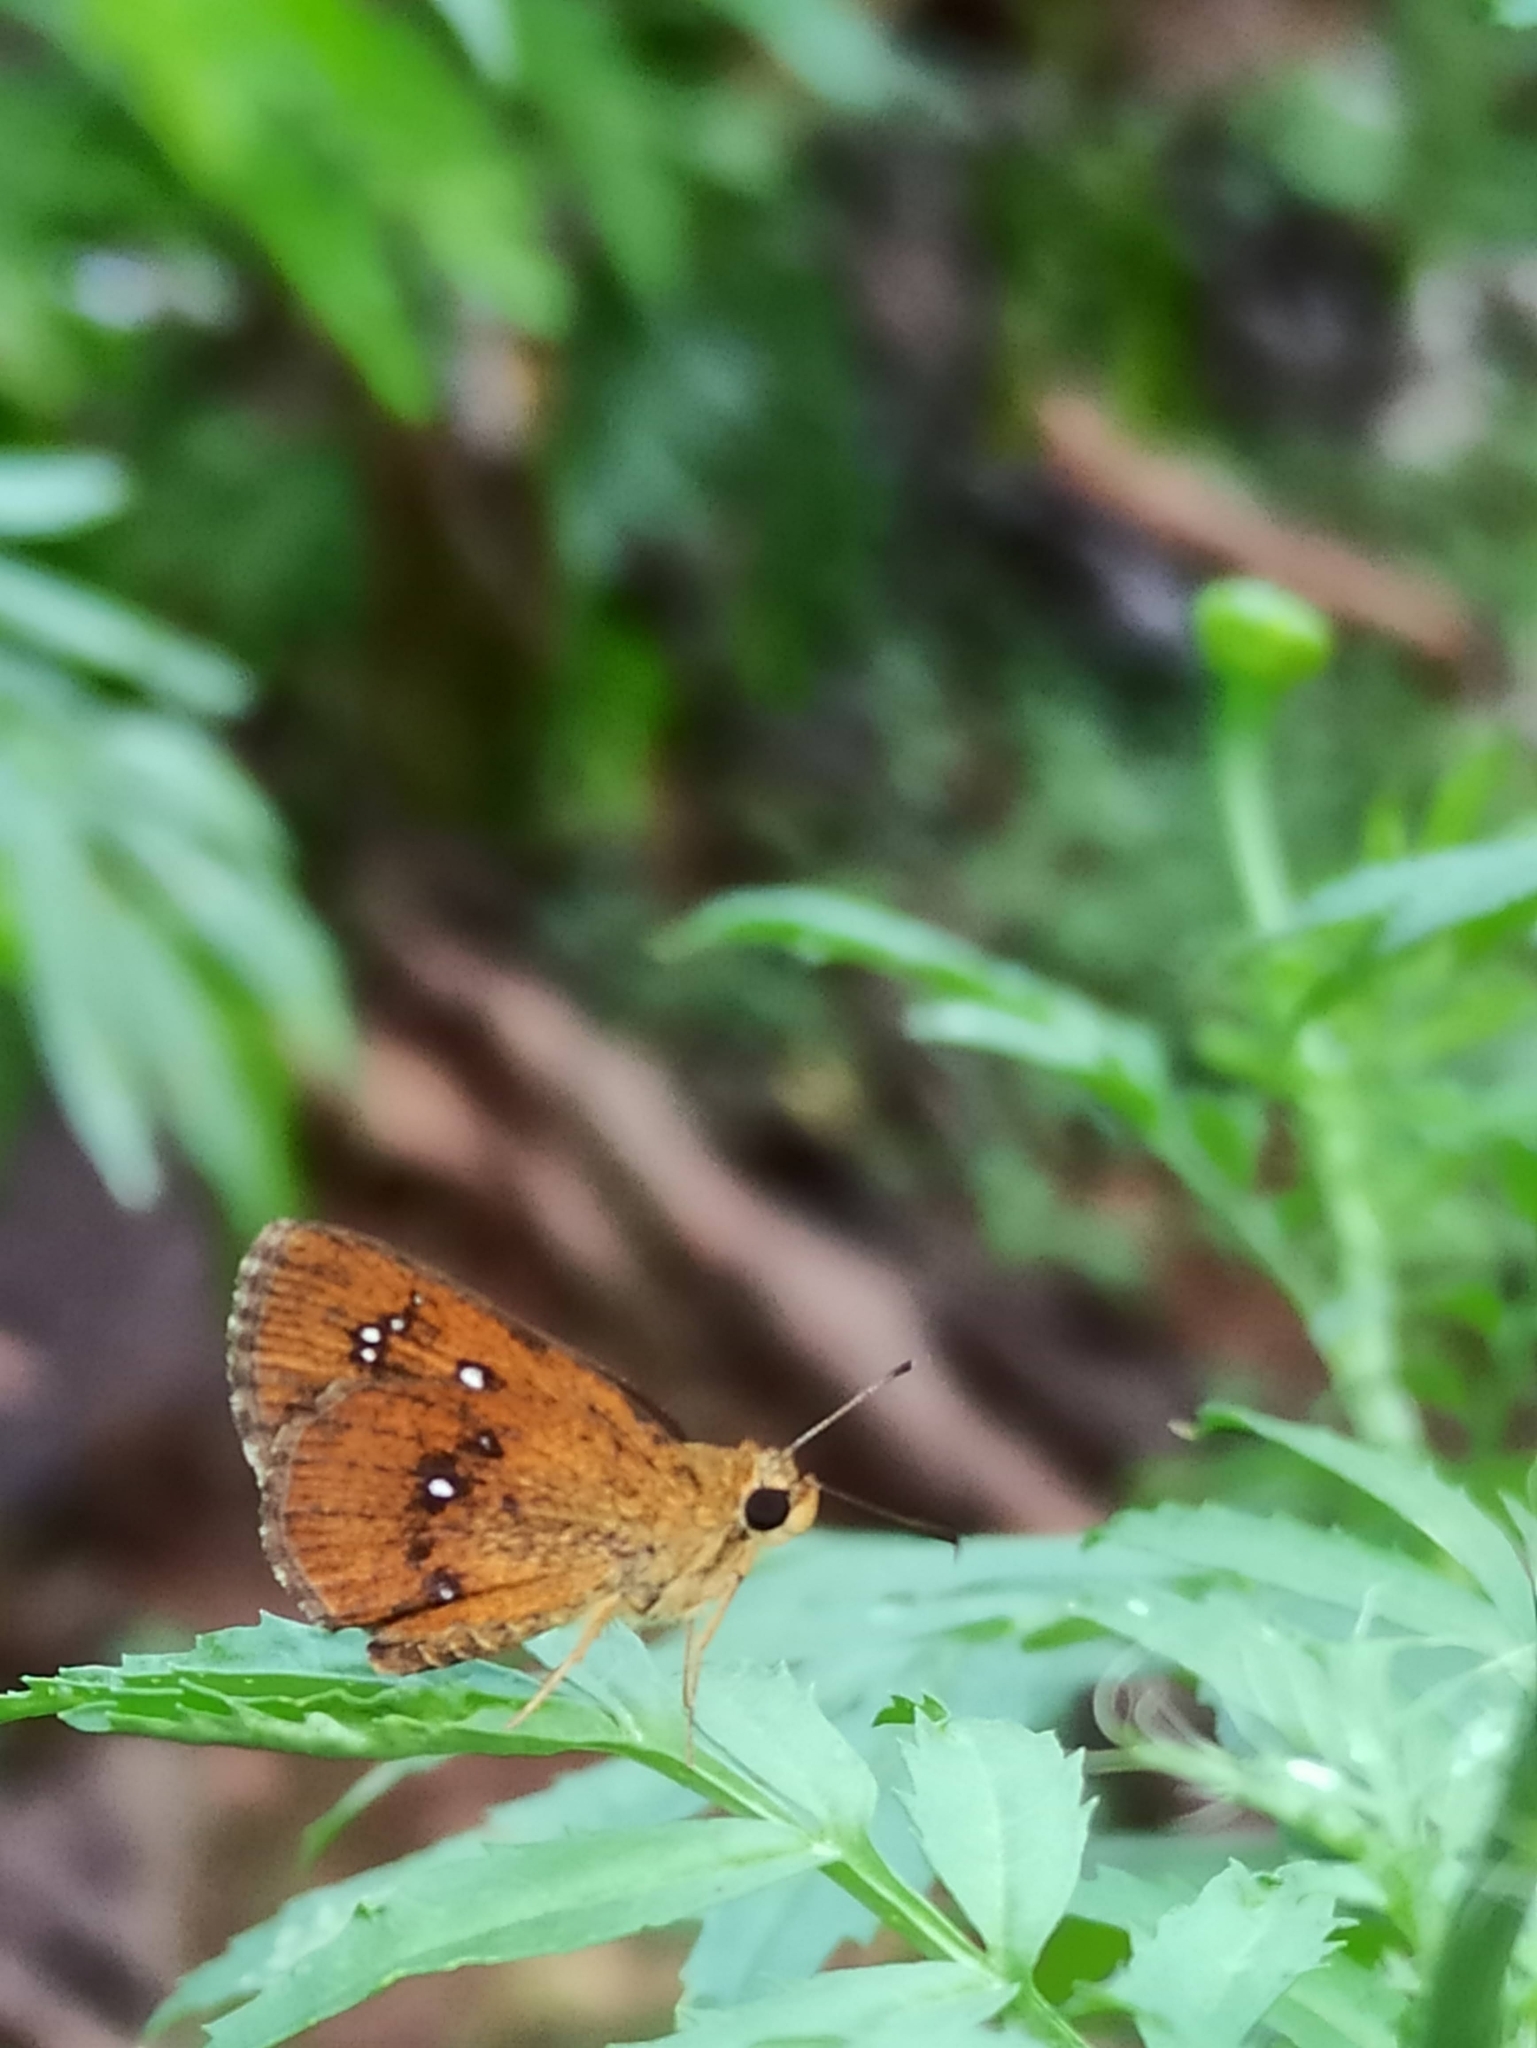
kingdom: Animalia
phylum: Arthropoda
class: Insecta
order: Lepidoptera
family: Hesperiidae
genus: Iambrix
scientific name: Iambrix salsala
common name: Chestnut bob
